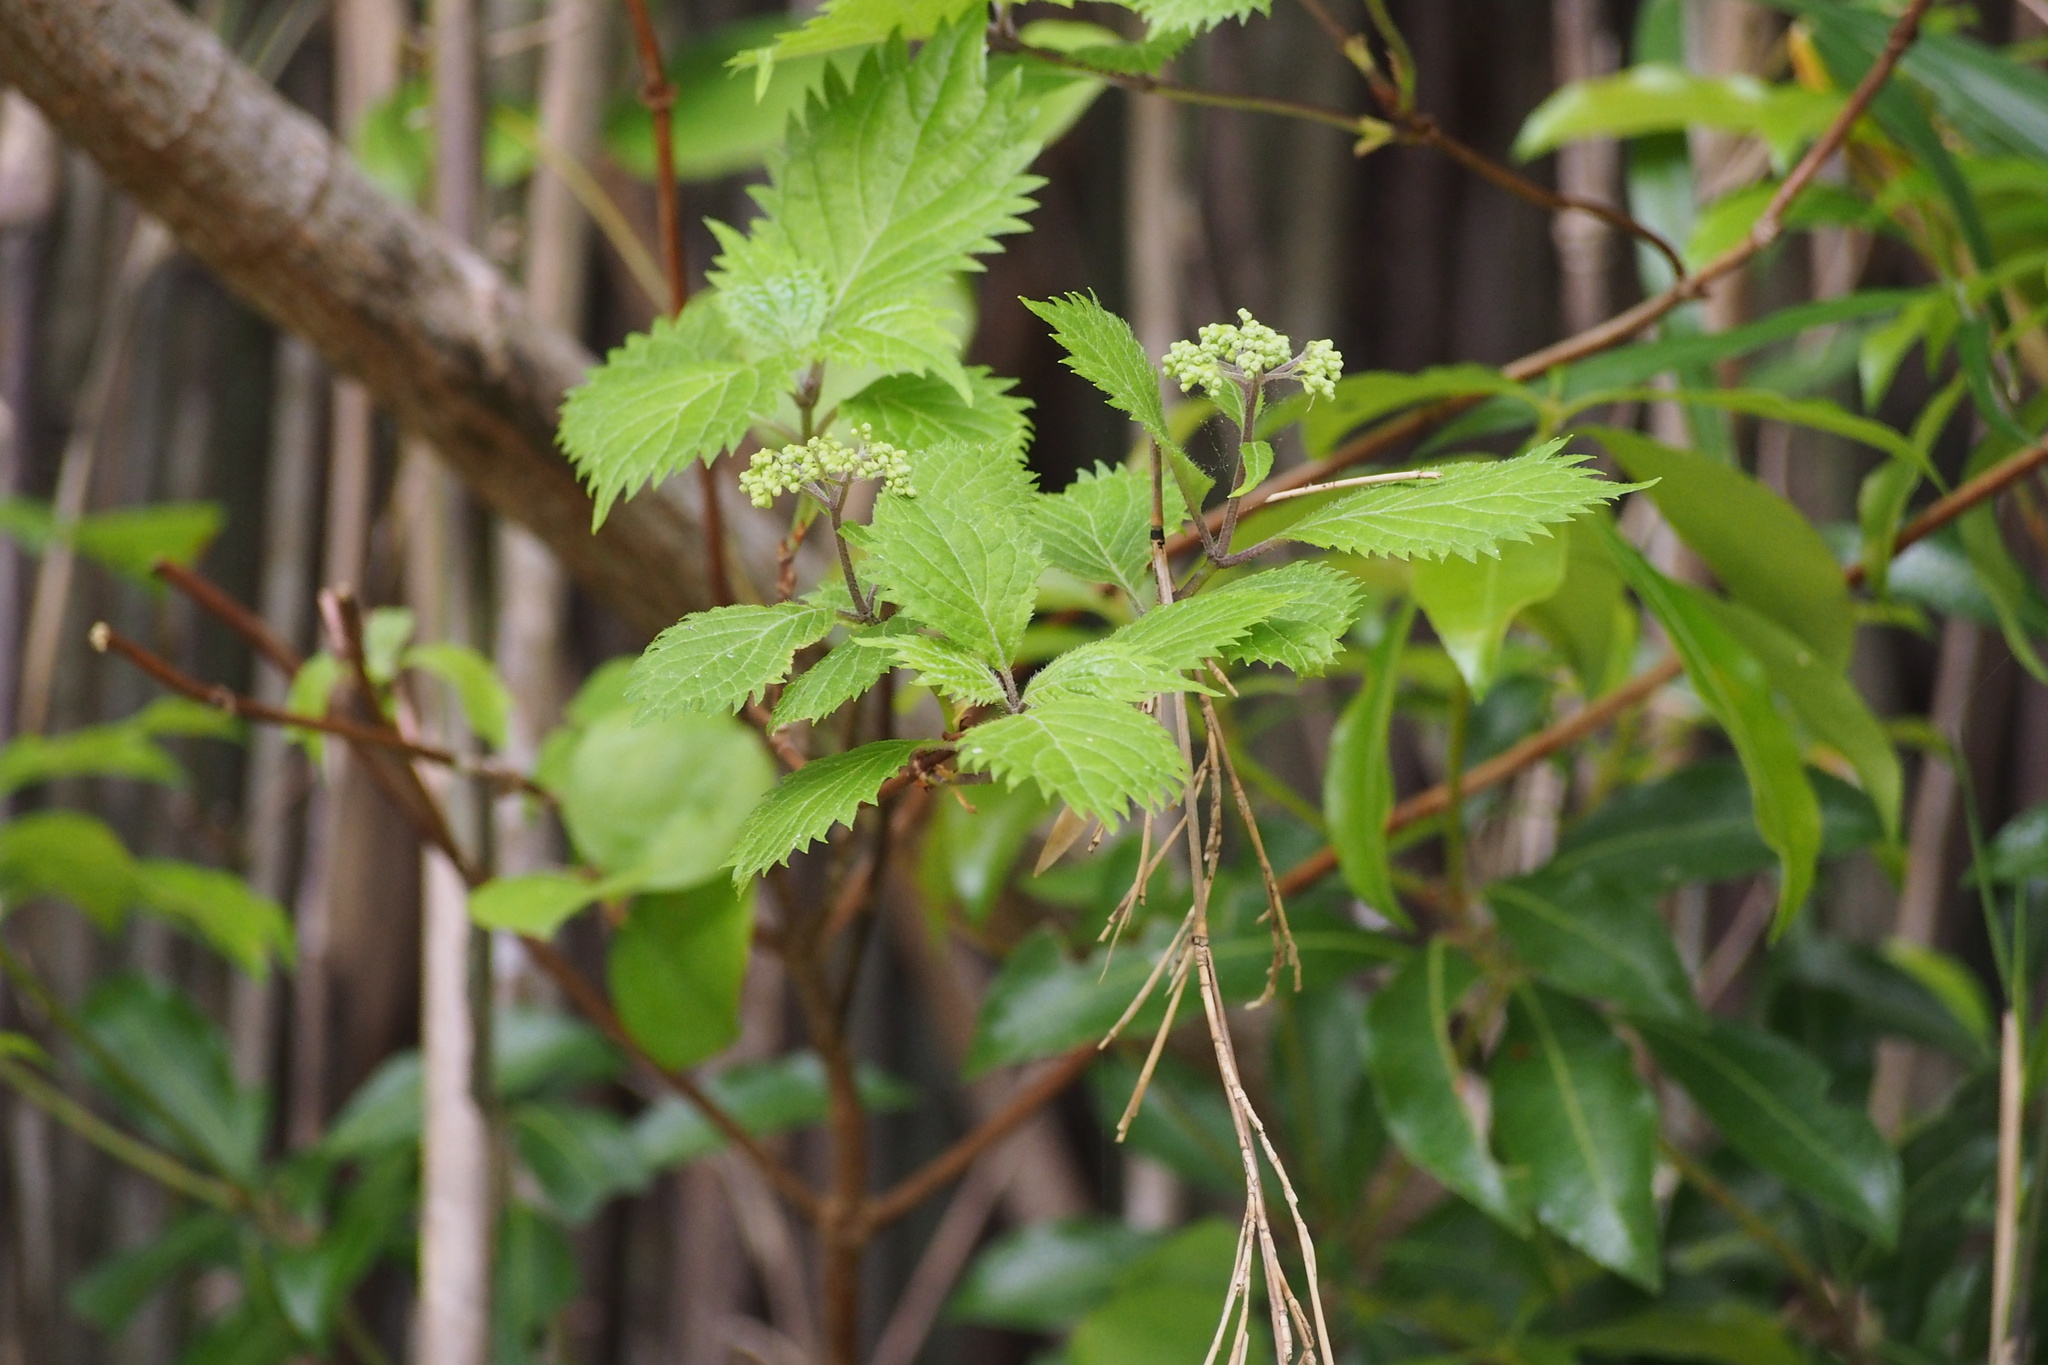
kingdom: Plantae
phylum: Tracheophyta
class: Magnoliopsida
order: Cornales
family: Hydrangeaceae
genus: Hydrangea
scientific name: Hydrangea hirta
